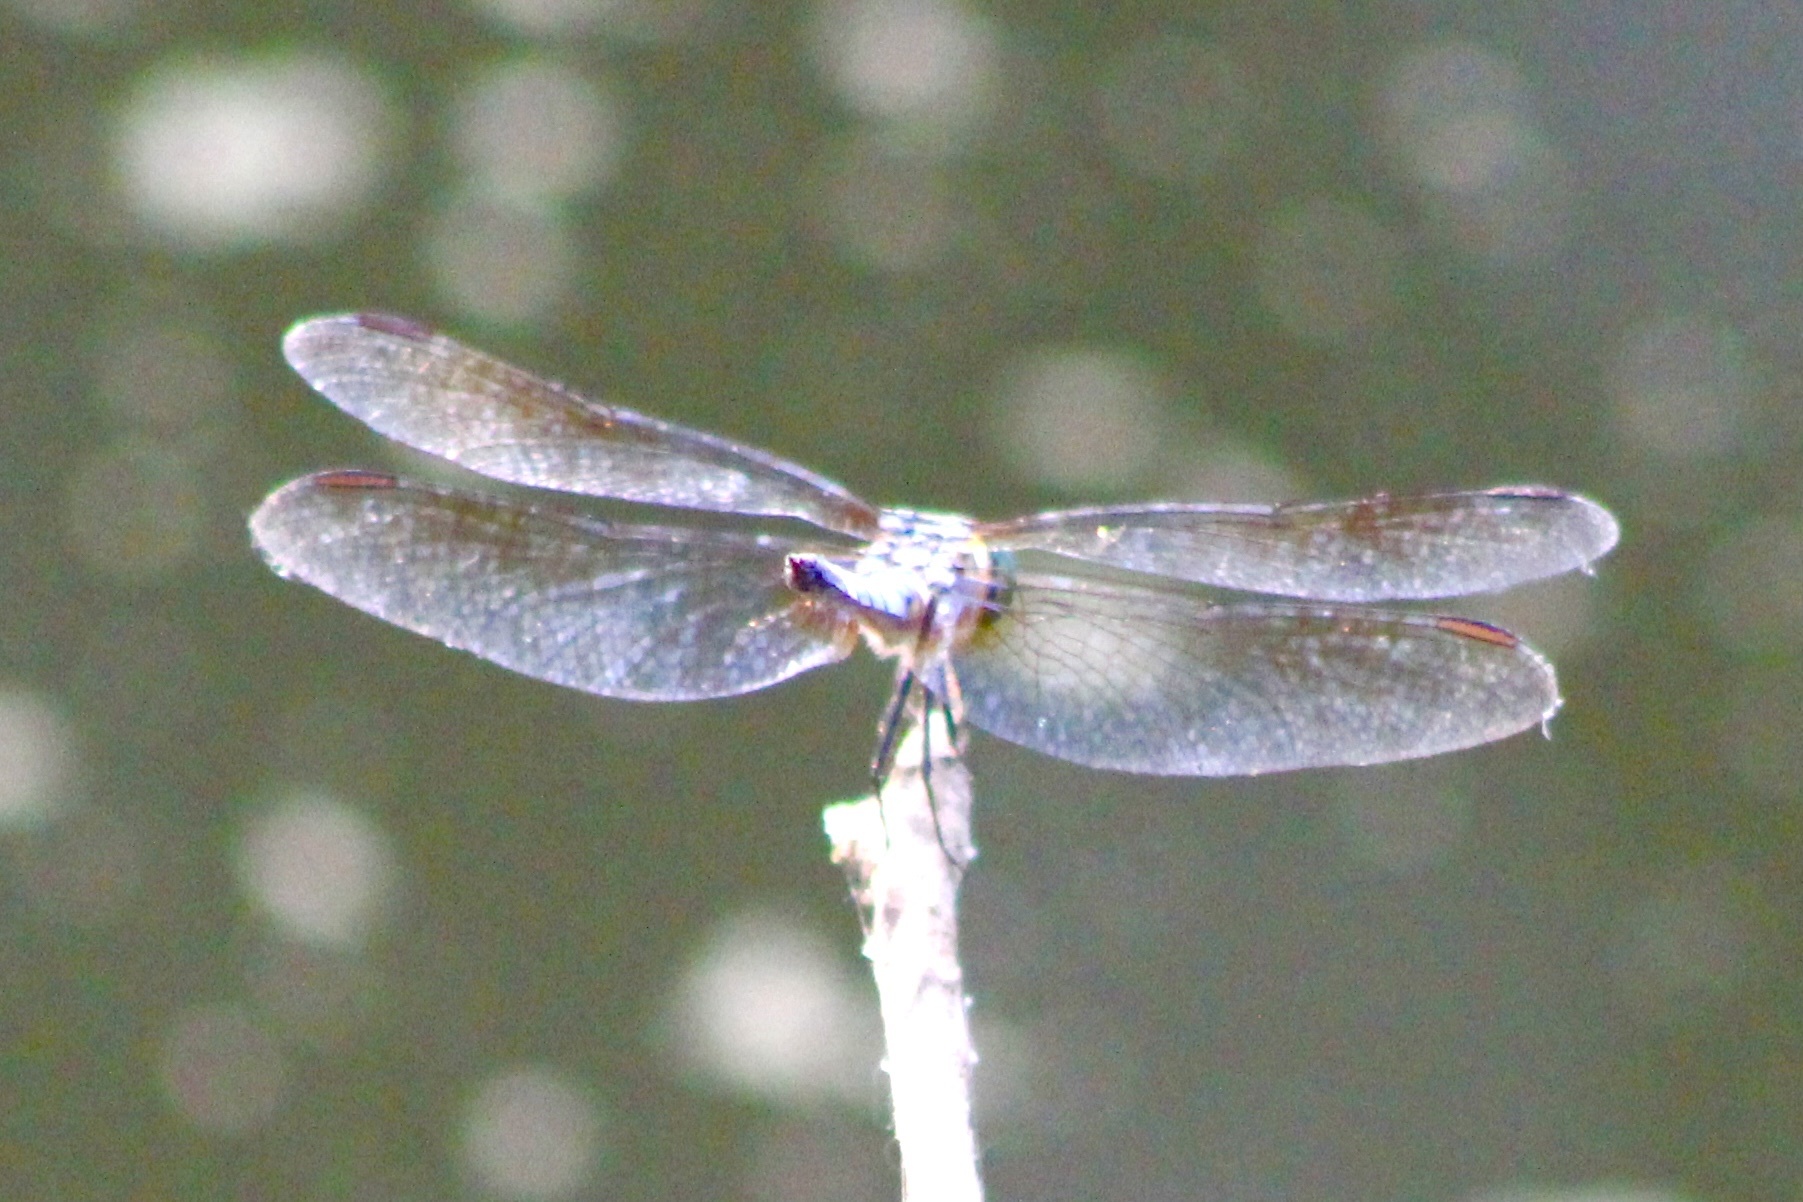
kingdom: Animalia
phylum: Arthropoda
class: Insecta
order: Odonata
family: Libellulidae
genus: Pachydiplax
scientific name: Pachydiplax longipennis
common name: Blue dasher
